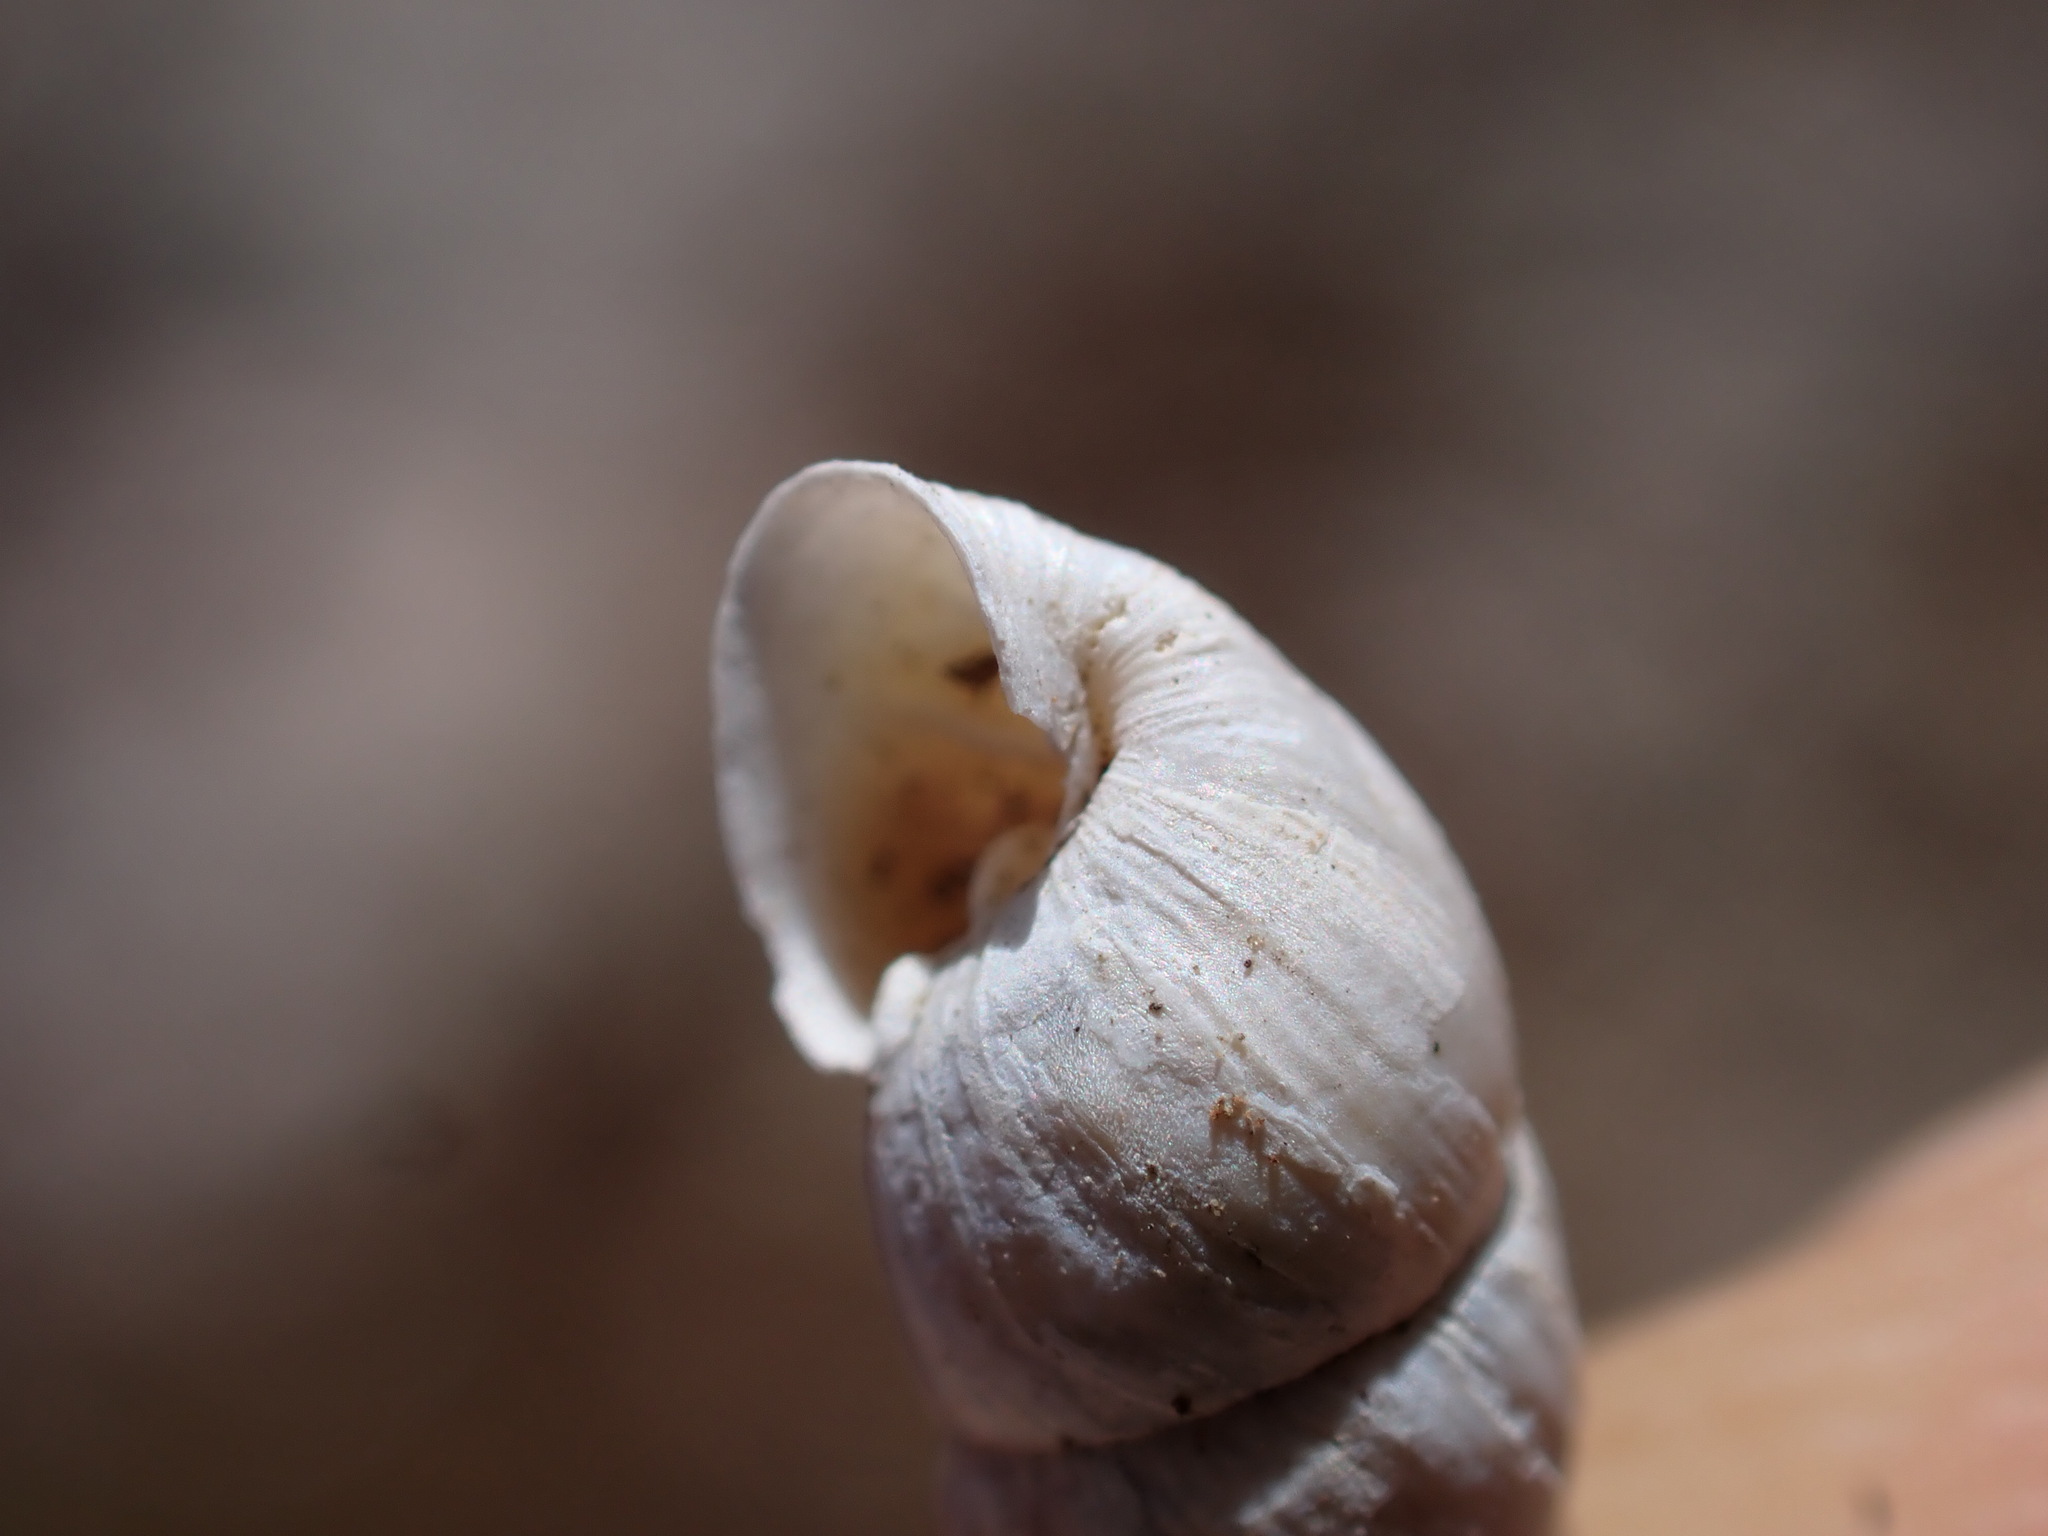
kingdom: Animalia
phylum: Mollusca
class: Gastropoda
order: Stylommatophora
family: Chondrinidae
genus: Solatopupa
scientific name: Solatopupa similis
